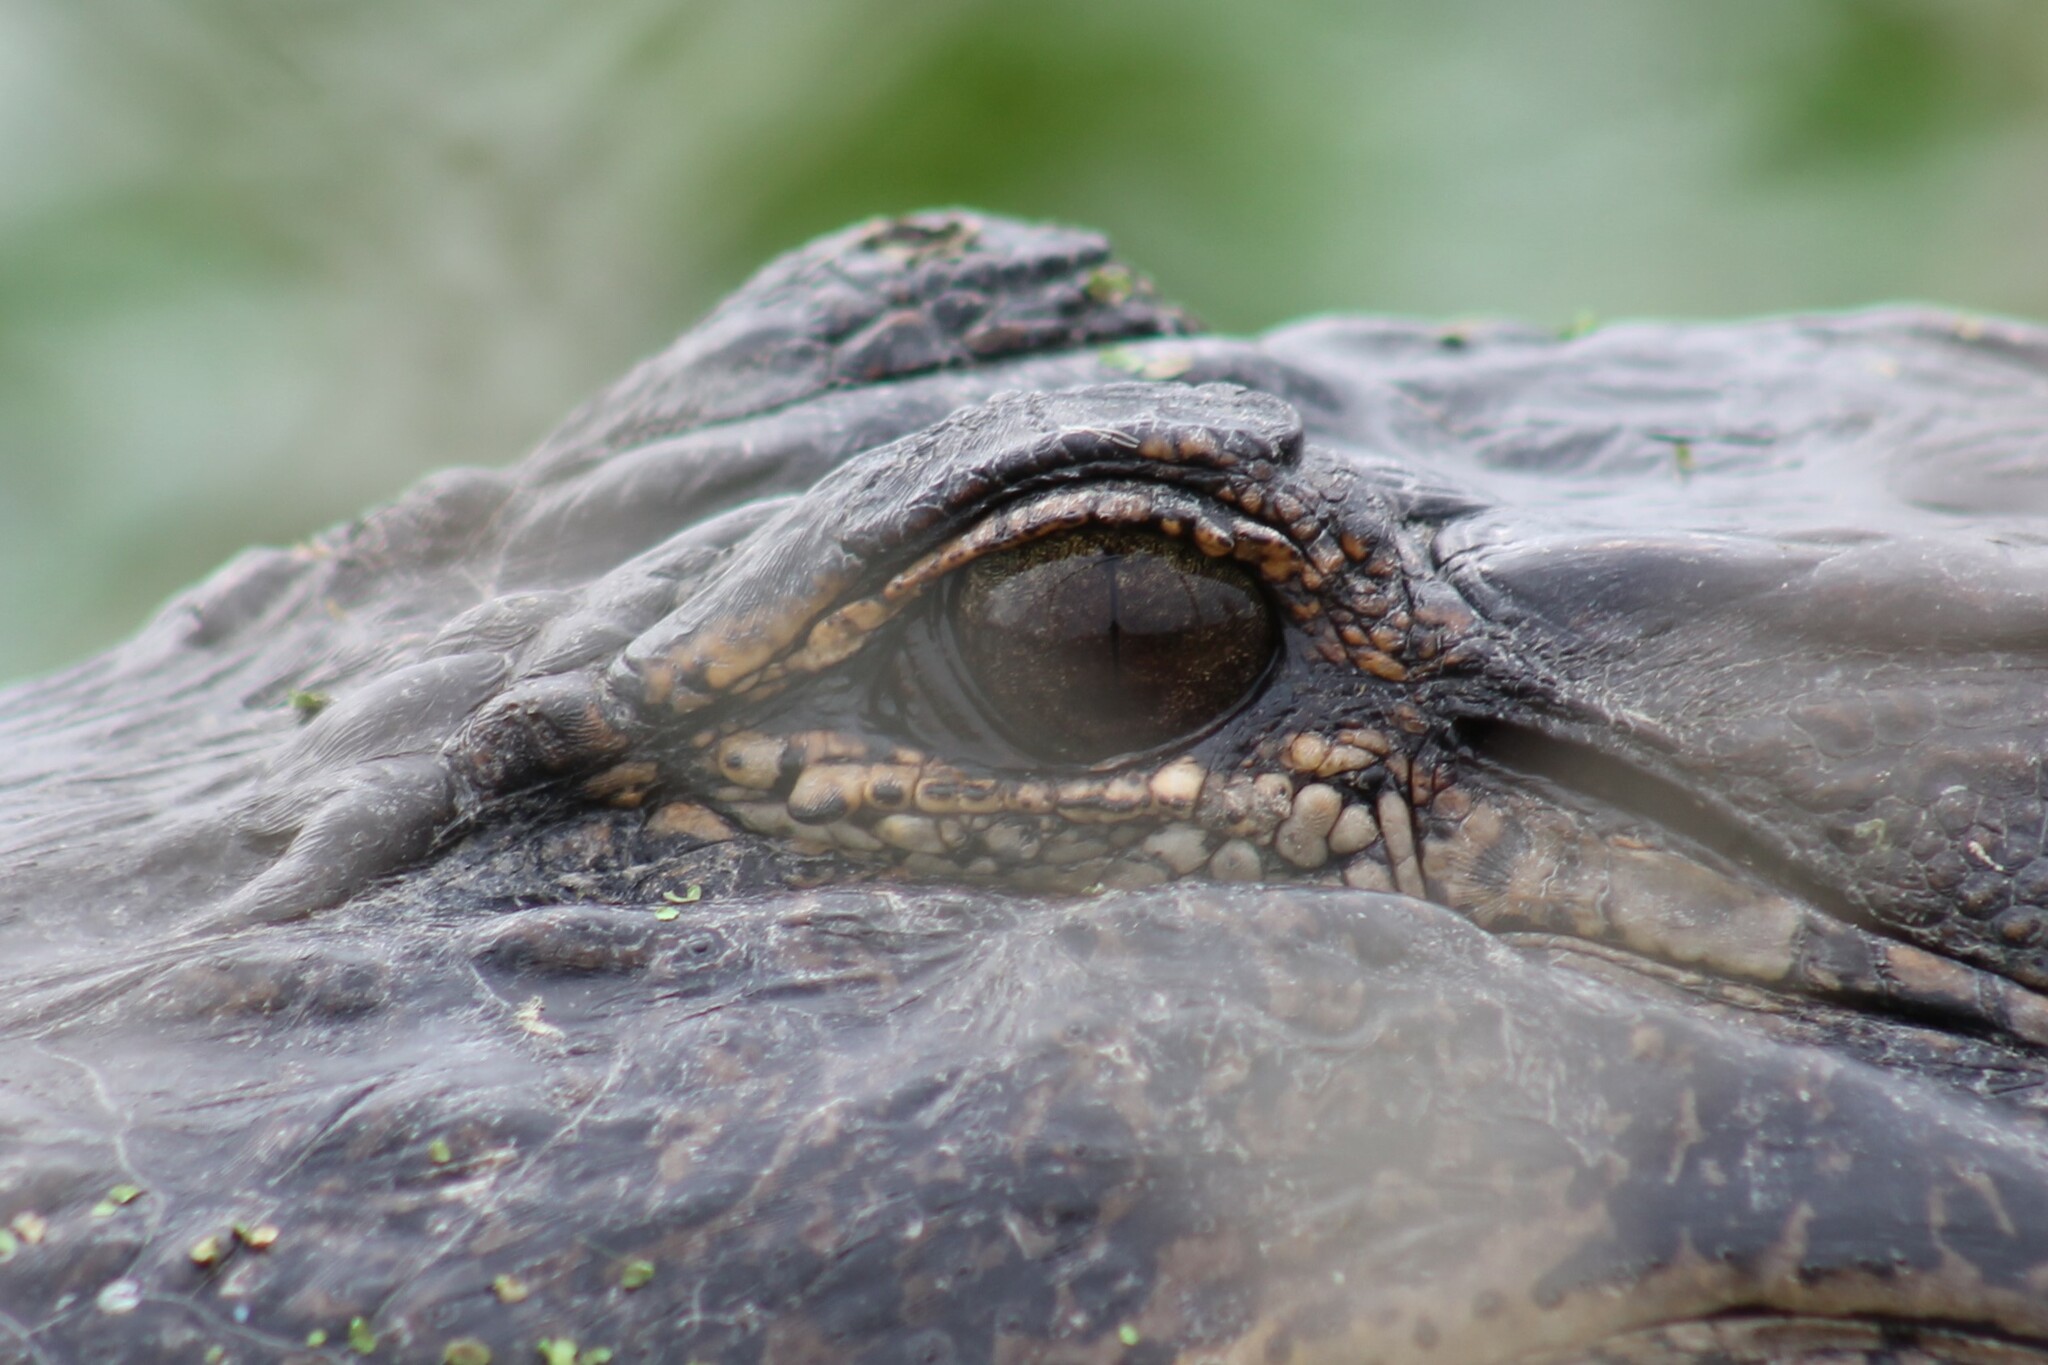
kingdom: Animalia
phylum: Chordata
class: Crocodylia
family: Alligatoridae
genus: Alligator
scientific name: Alligator mississippiensis
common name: American alligator
